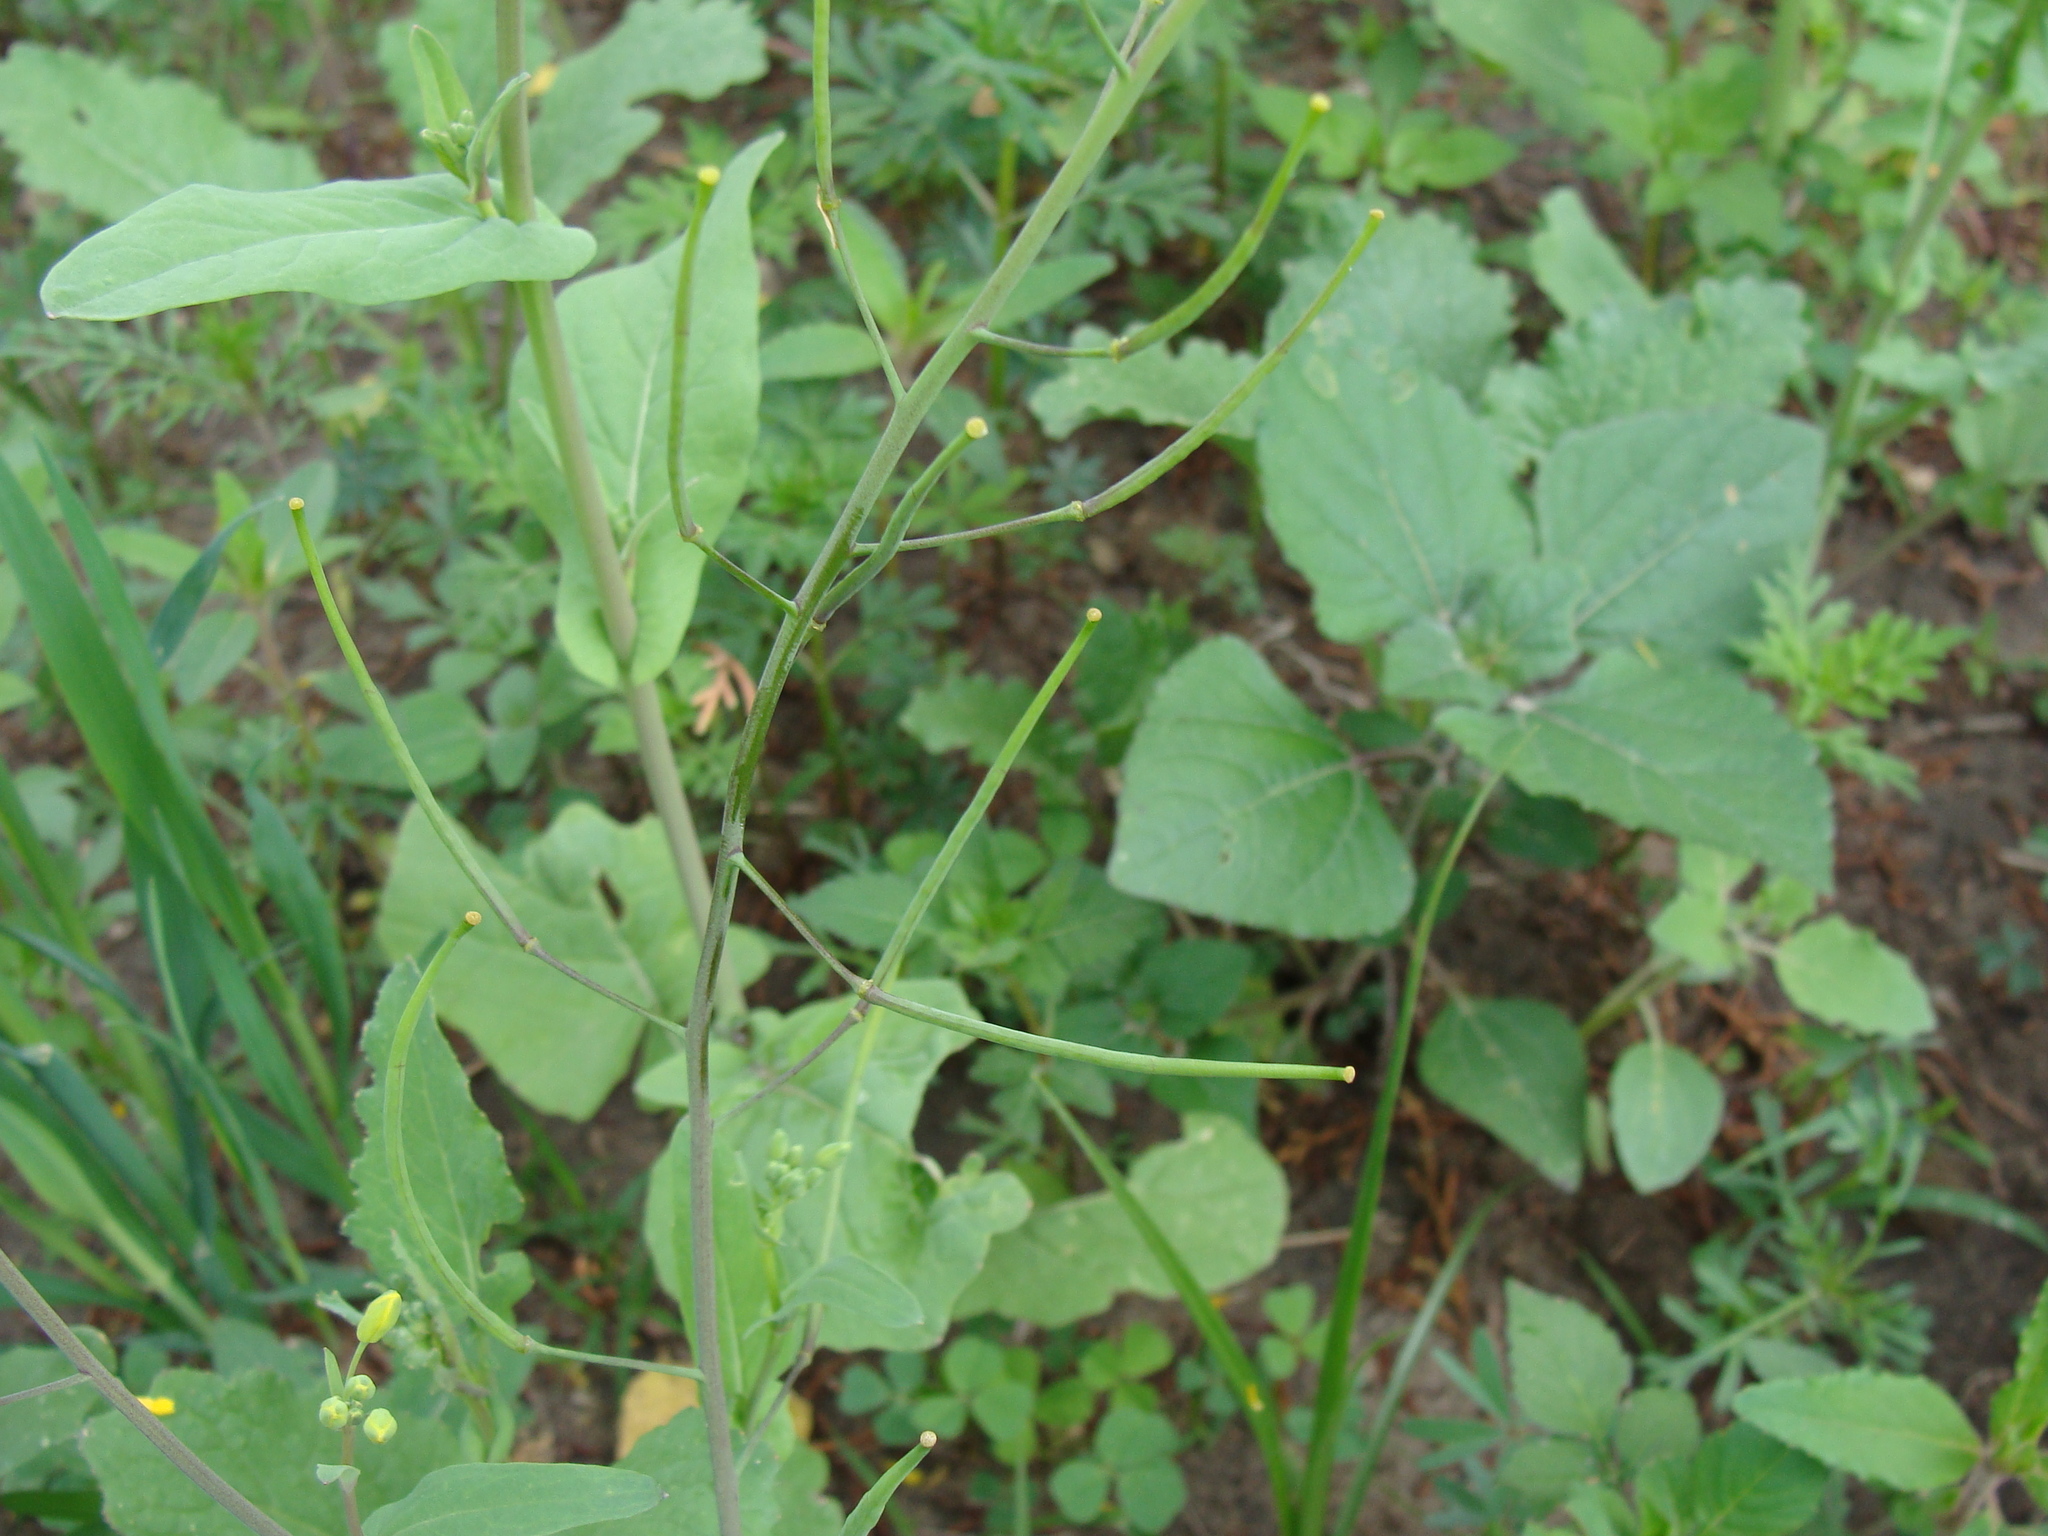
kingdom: Plantae
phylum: Tracheophyta
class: Magnoliopsida
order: Brassicales
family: Brassicaceae
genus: Brassica
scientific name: Brassica rapa
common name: Field mustard
